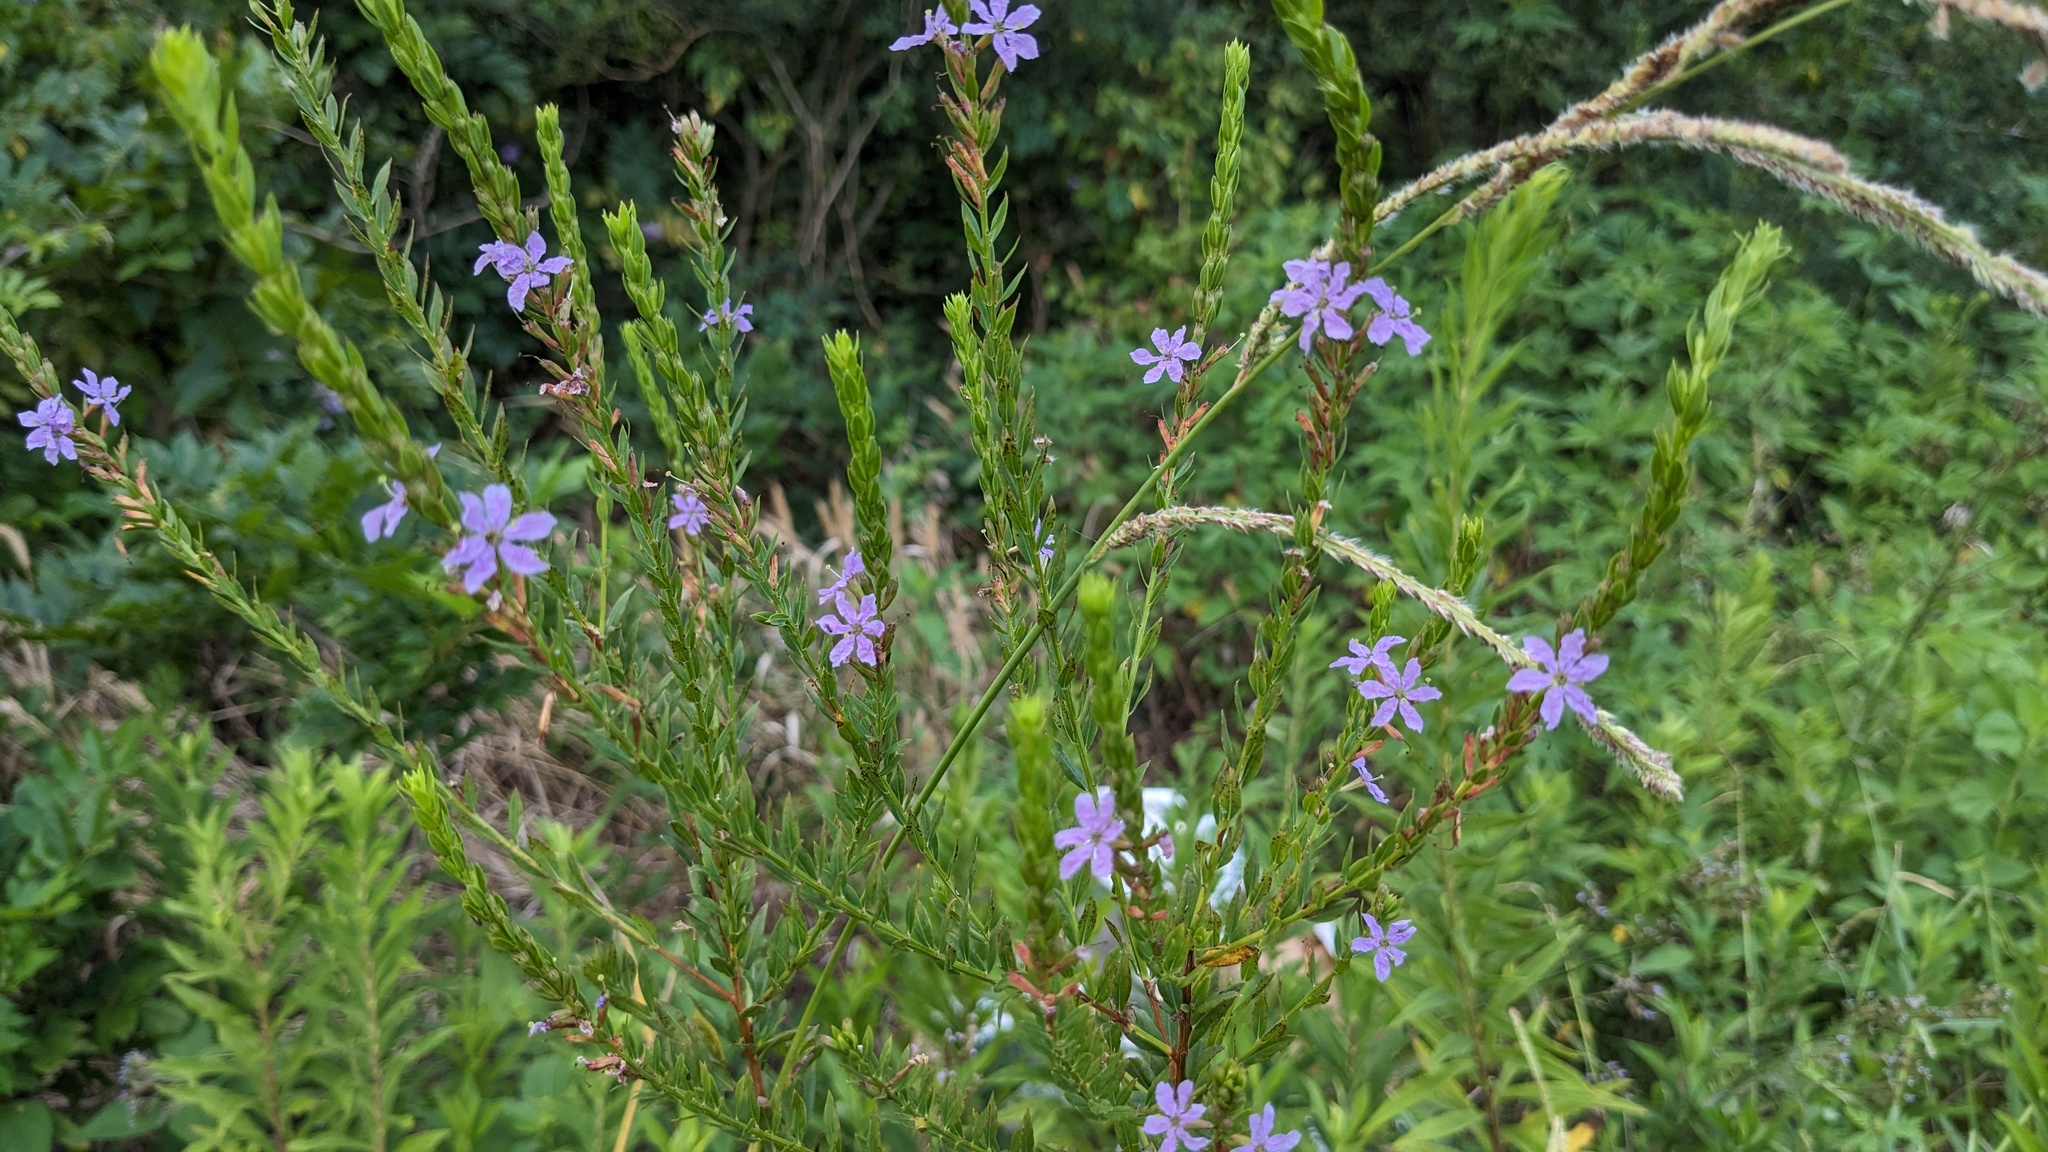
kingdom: Plantae
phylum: Tracheophyta
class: Magnoliopsida
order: Myrtales
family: Lythraceae
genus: Lythrum
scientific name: Lythrum alatum
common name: Winged loosestrife
